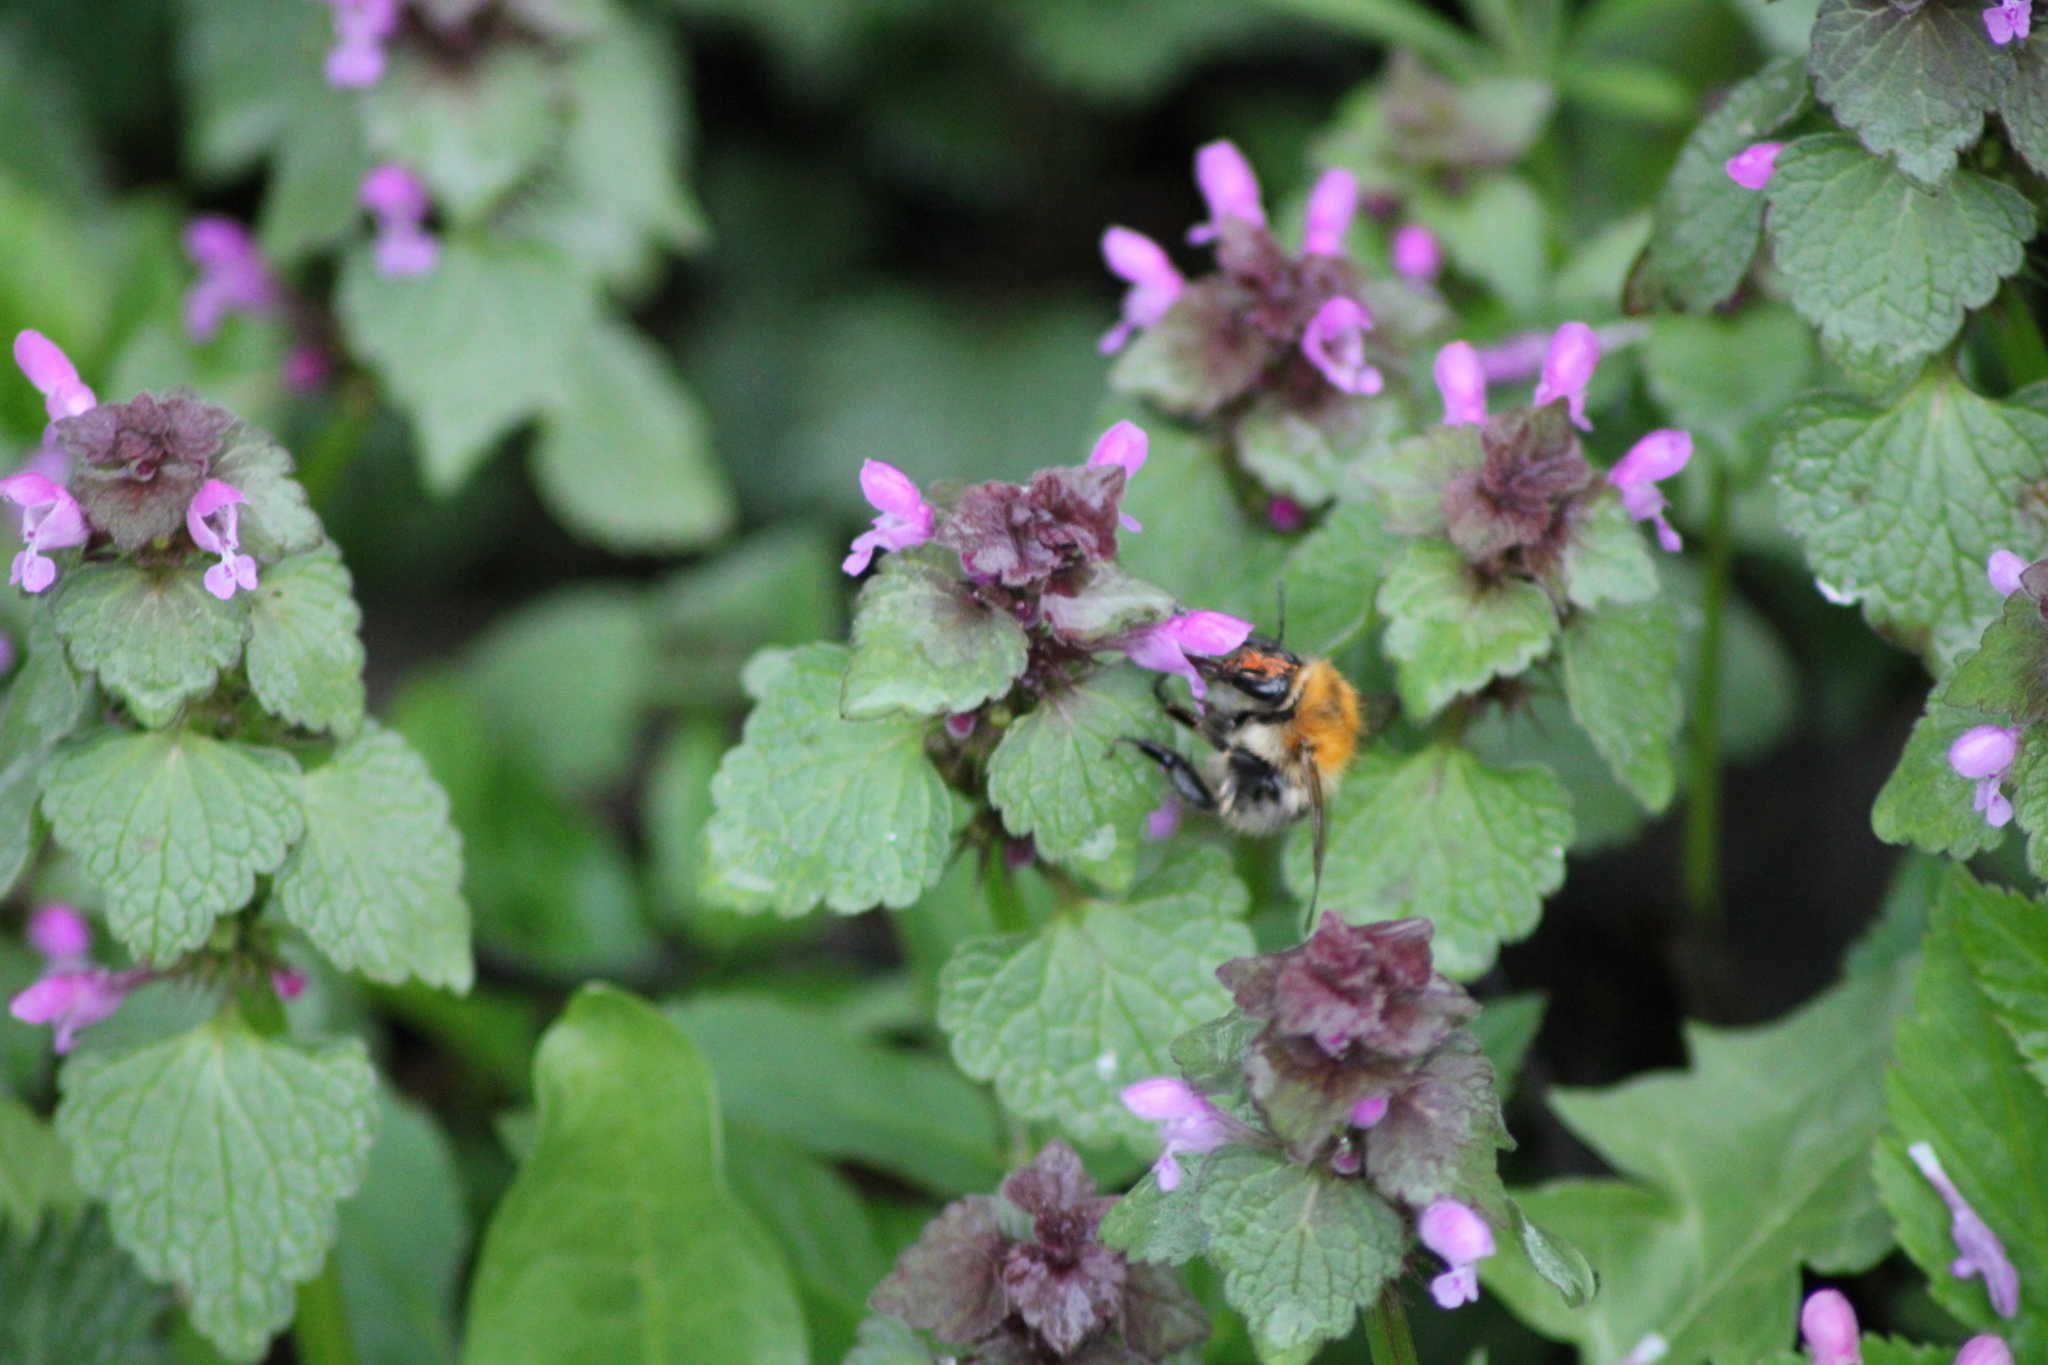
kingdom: Animalia
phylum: Arthropoda
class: Insecta
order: Hymenoptera
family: Apidae
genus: Bombus
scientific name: Bombus pascuorum
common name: Common carder bee
